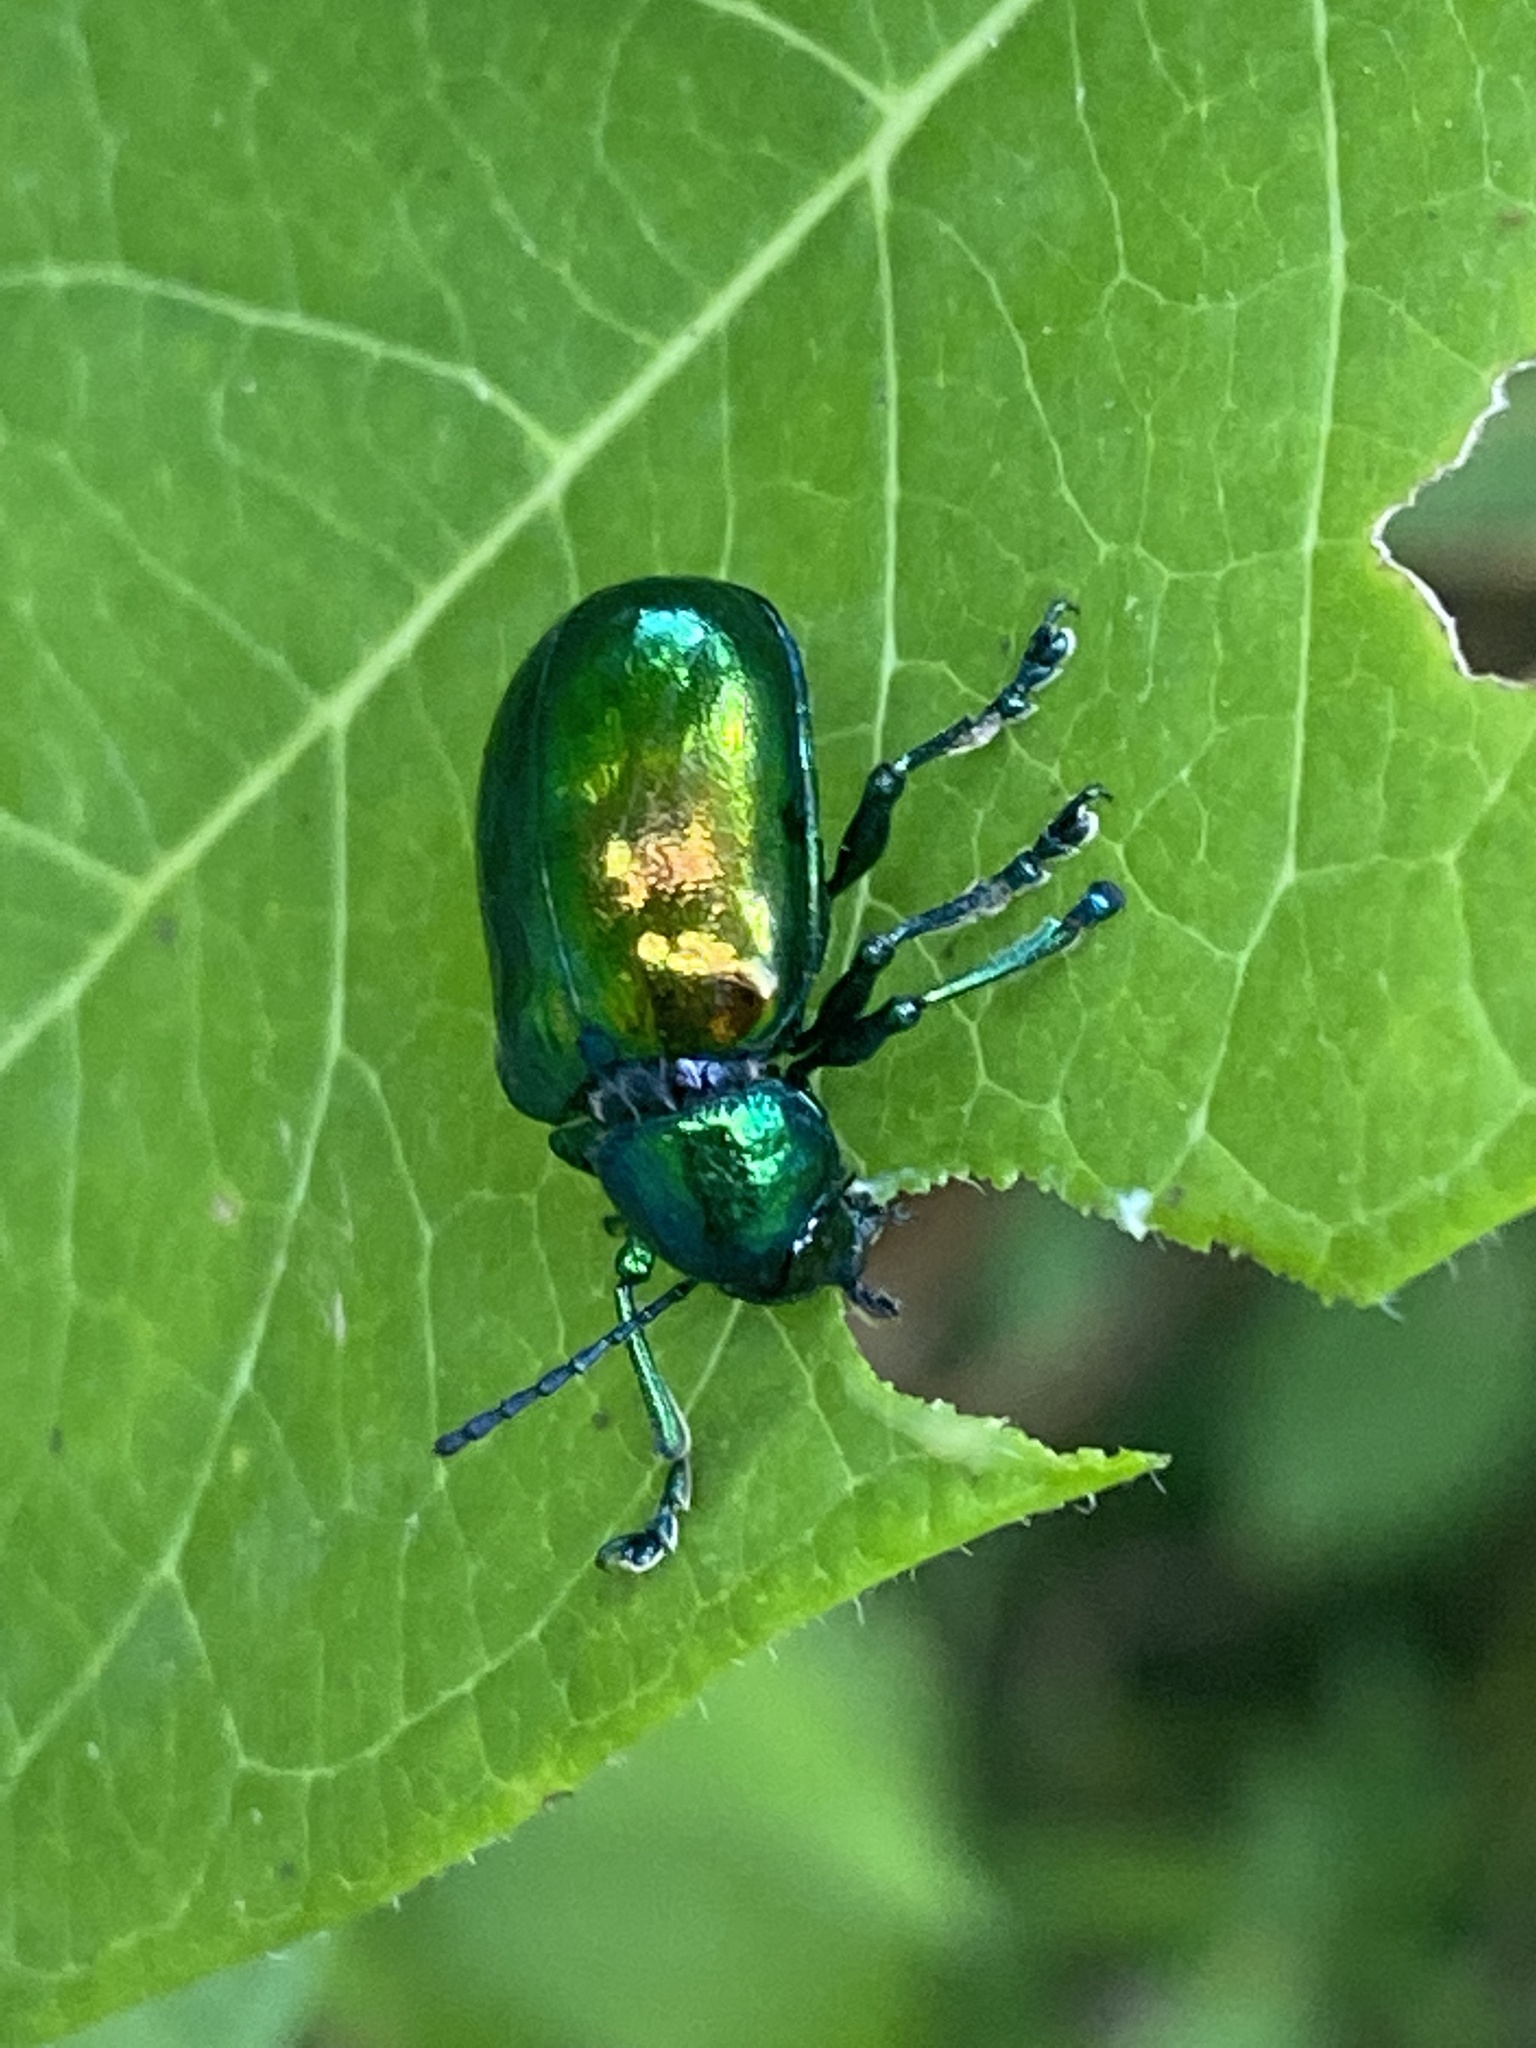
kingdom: Animalia
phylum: Arthropoda
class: Insecta
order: Coleoptera
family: Chrysomelidae
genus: Chrysochus
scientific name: Chrysochus auratus
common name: Dogbane leaf beetle
